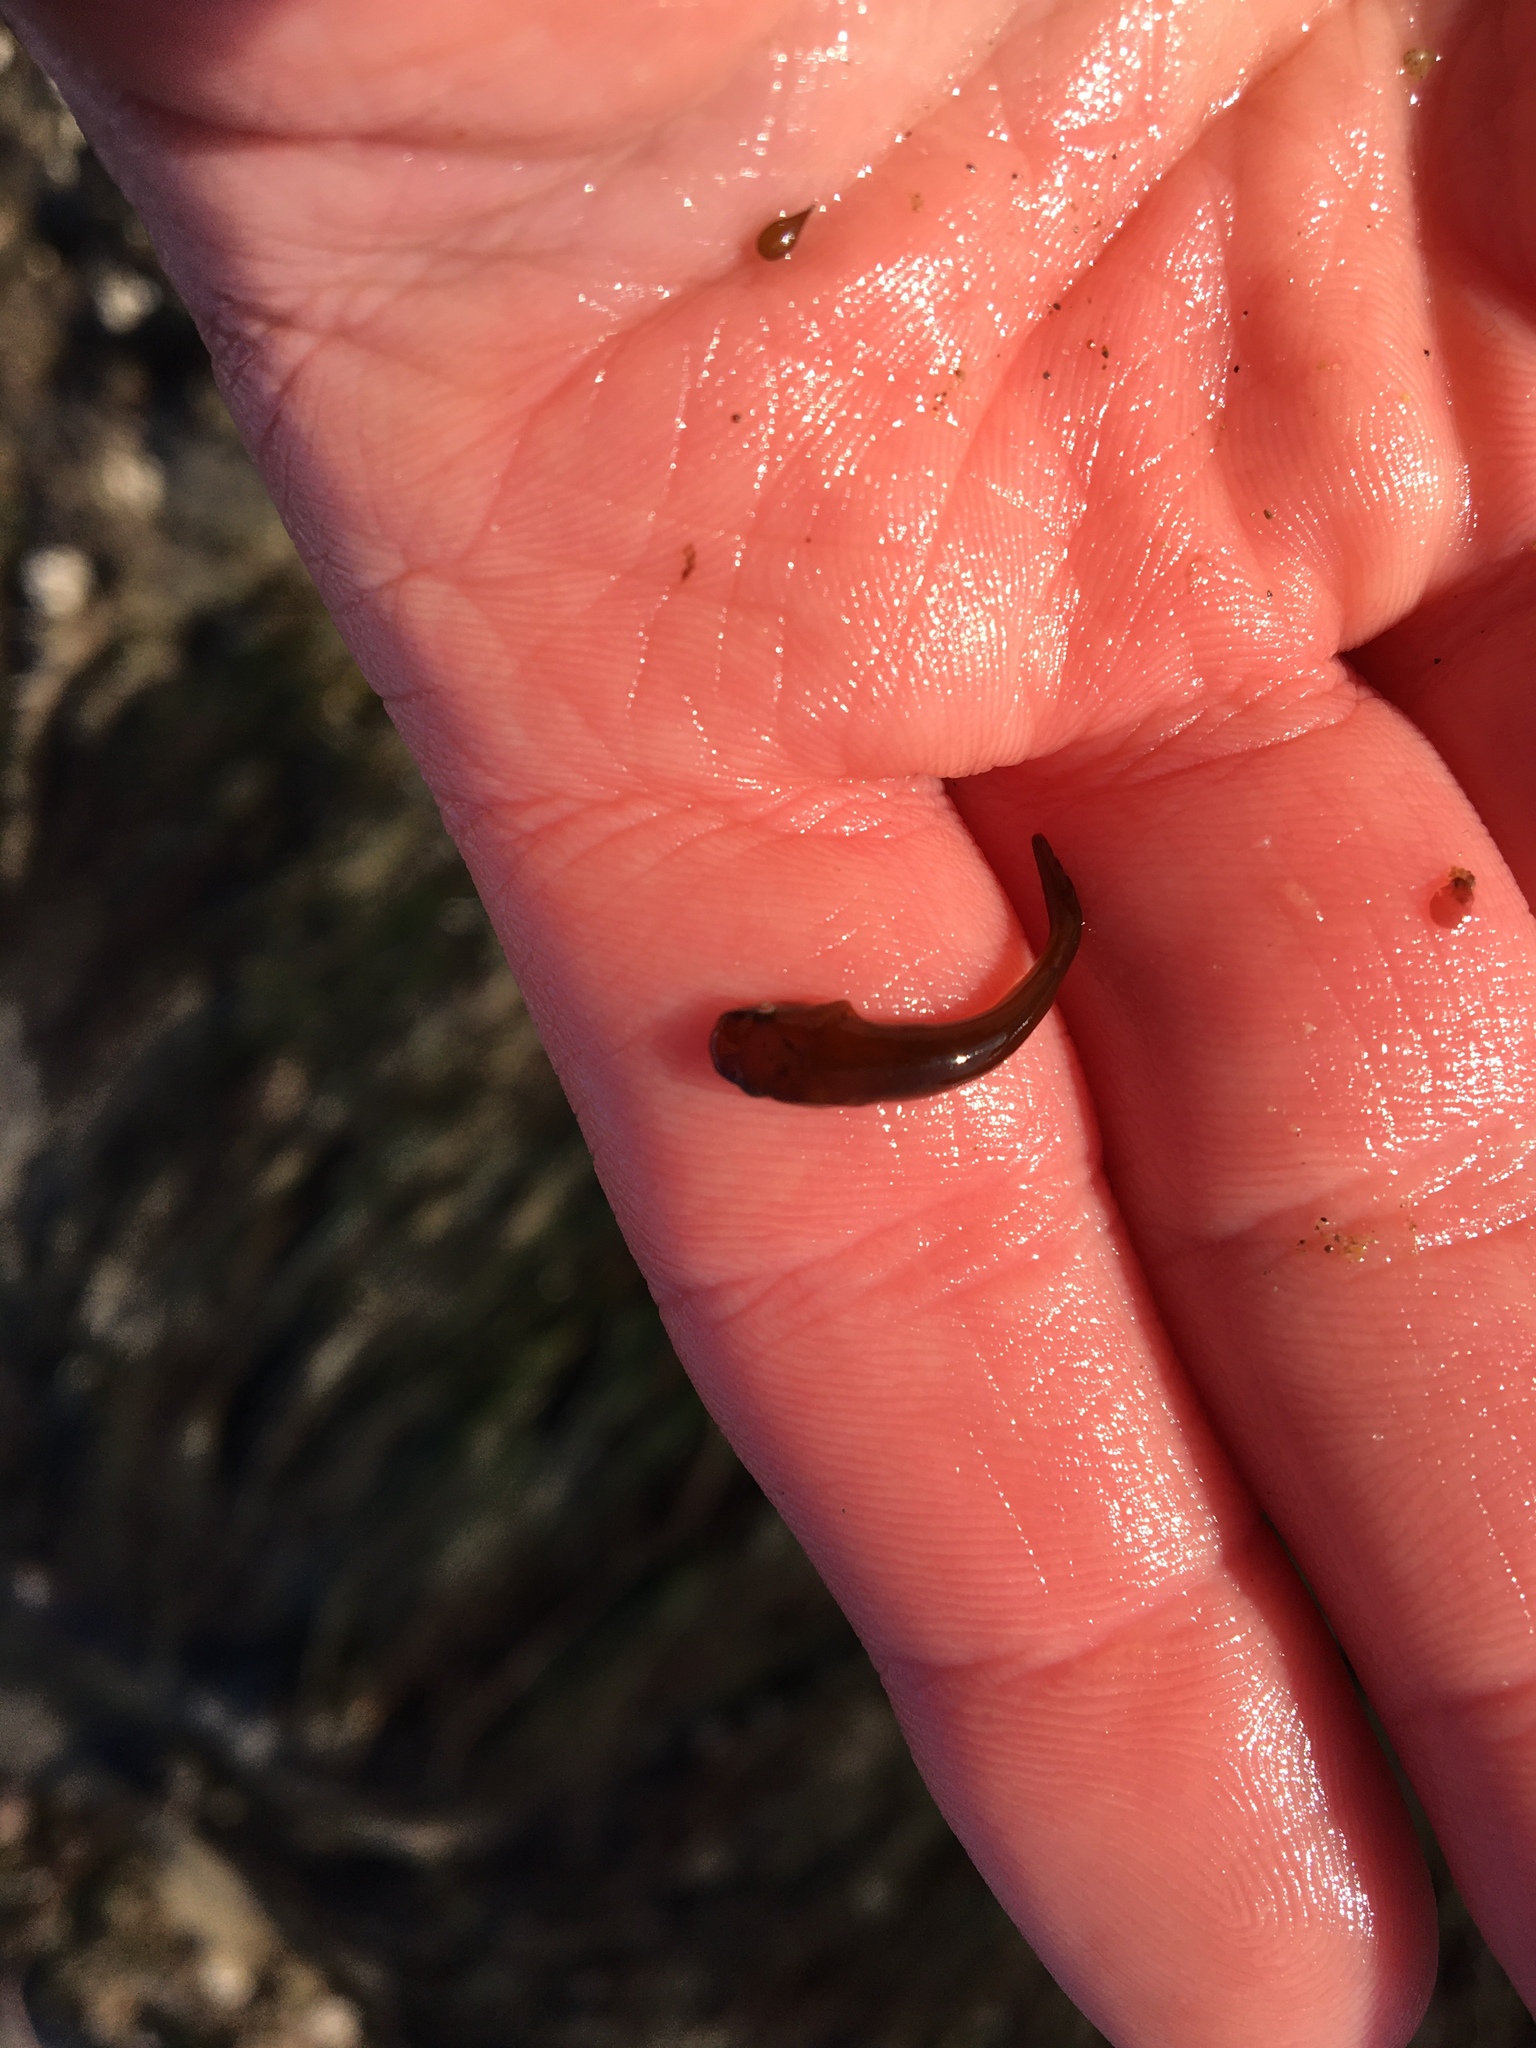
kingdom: Animalia
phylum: Chordata
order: Gobiesociformes
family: Gobiesocidae
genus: Rimicola
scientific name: Rimicola eigenmanni
